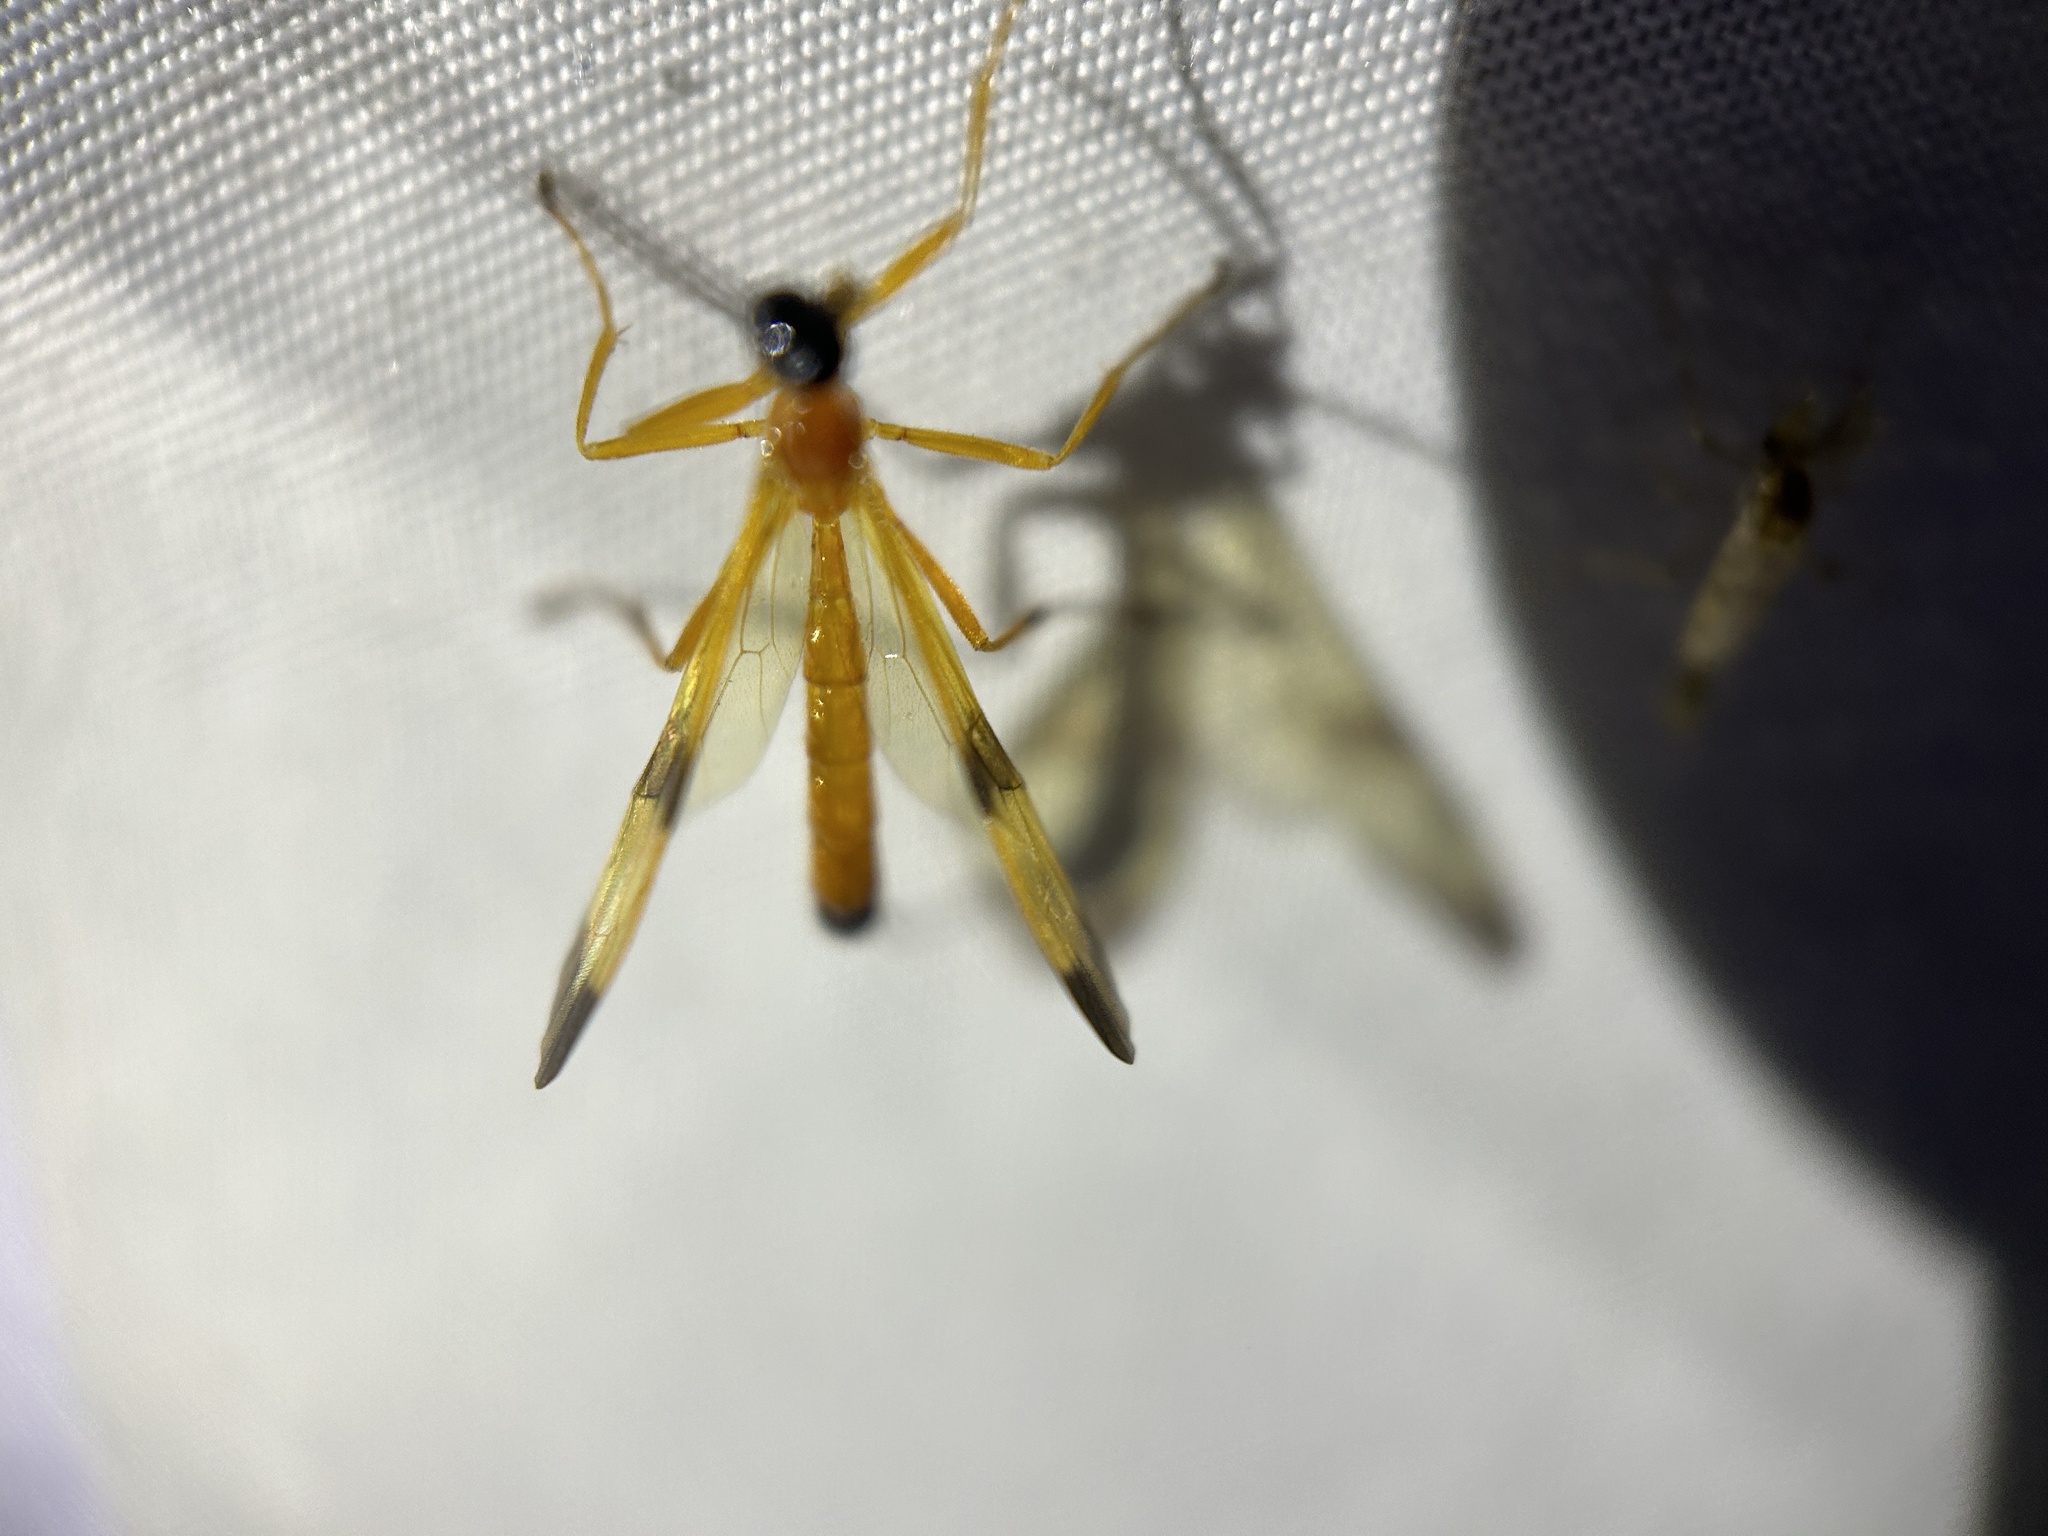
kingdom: Animalia
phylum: Arthropoda
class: Insecta
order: Hymenoptera
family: Ichneumonidae
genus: Acrotaphus
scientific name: Acrotaphus wiltii
